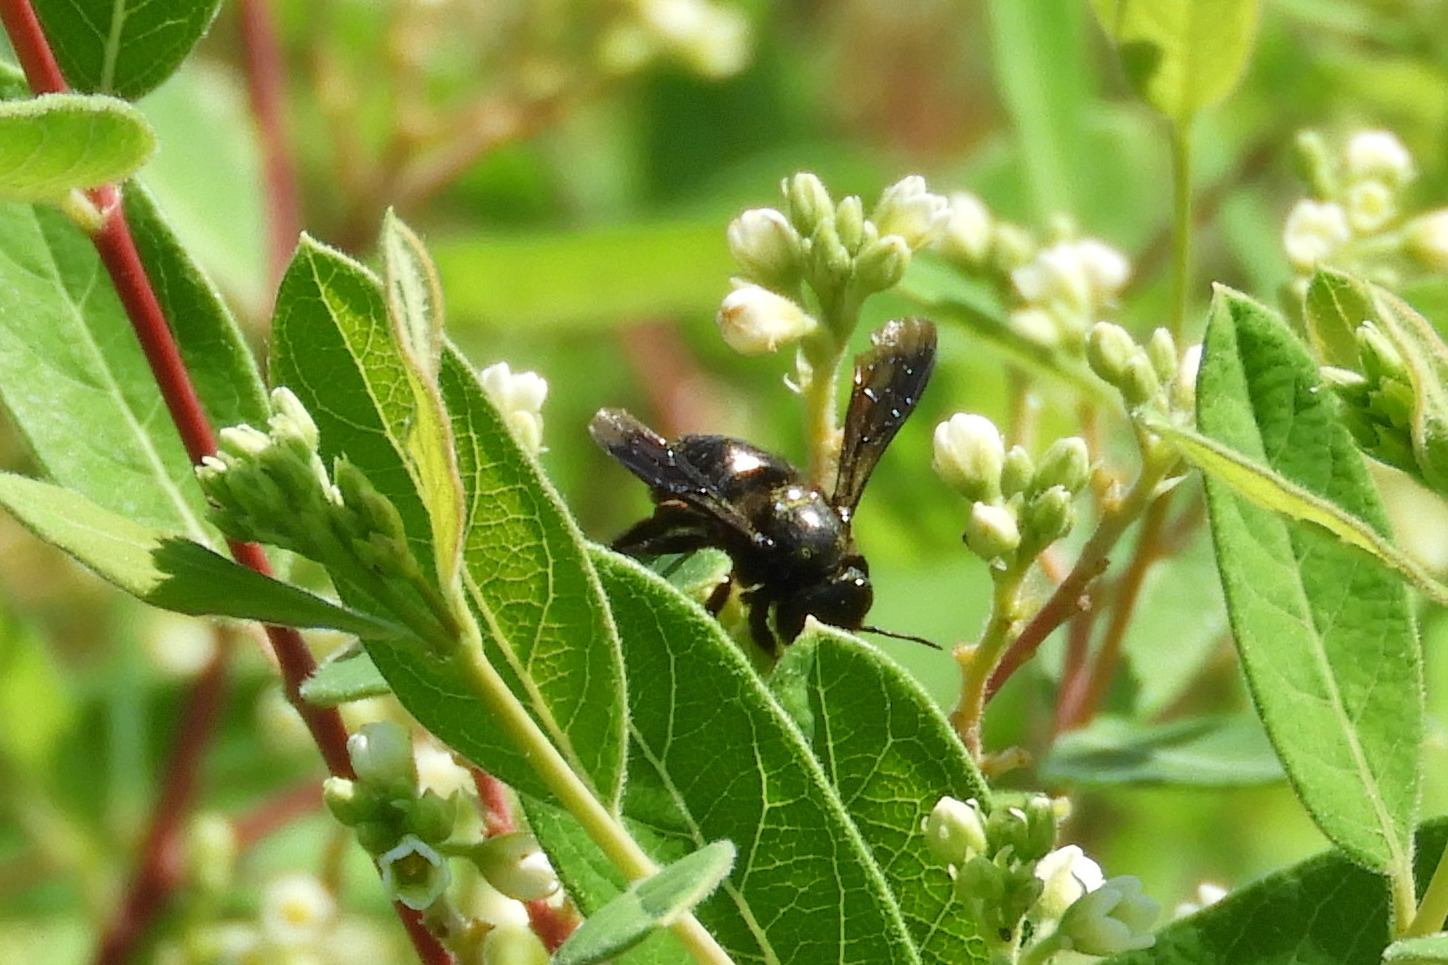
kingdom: Animalia
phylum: Arthropoda
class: Insecta
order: Hymenoptera
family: Megachilidae
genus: Megachile
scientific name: Megachile xylocopoides
